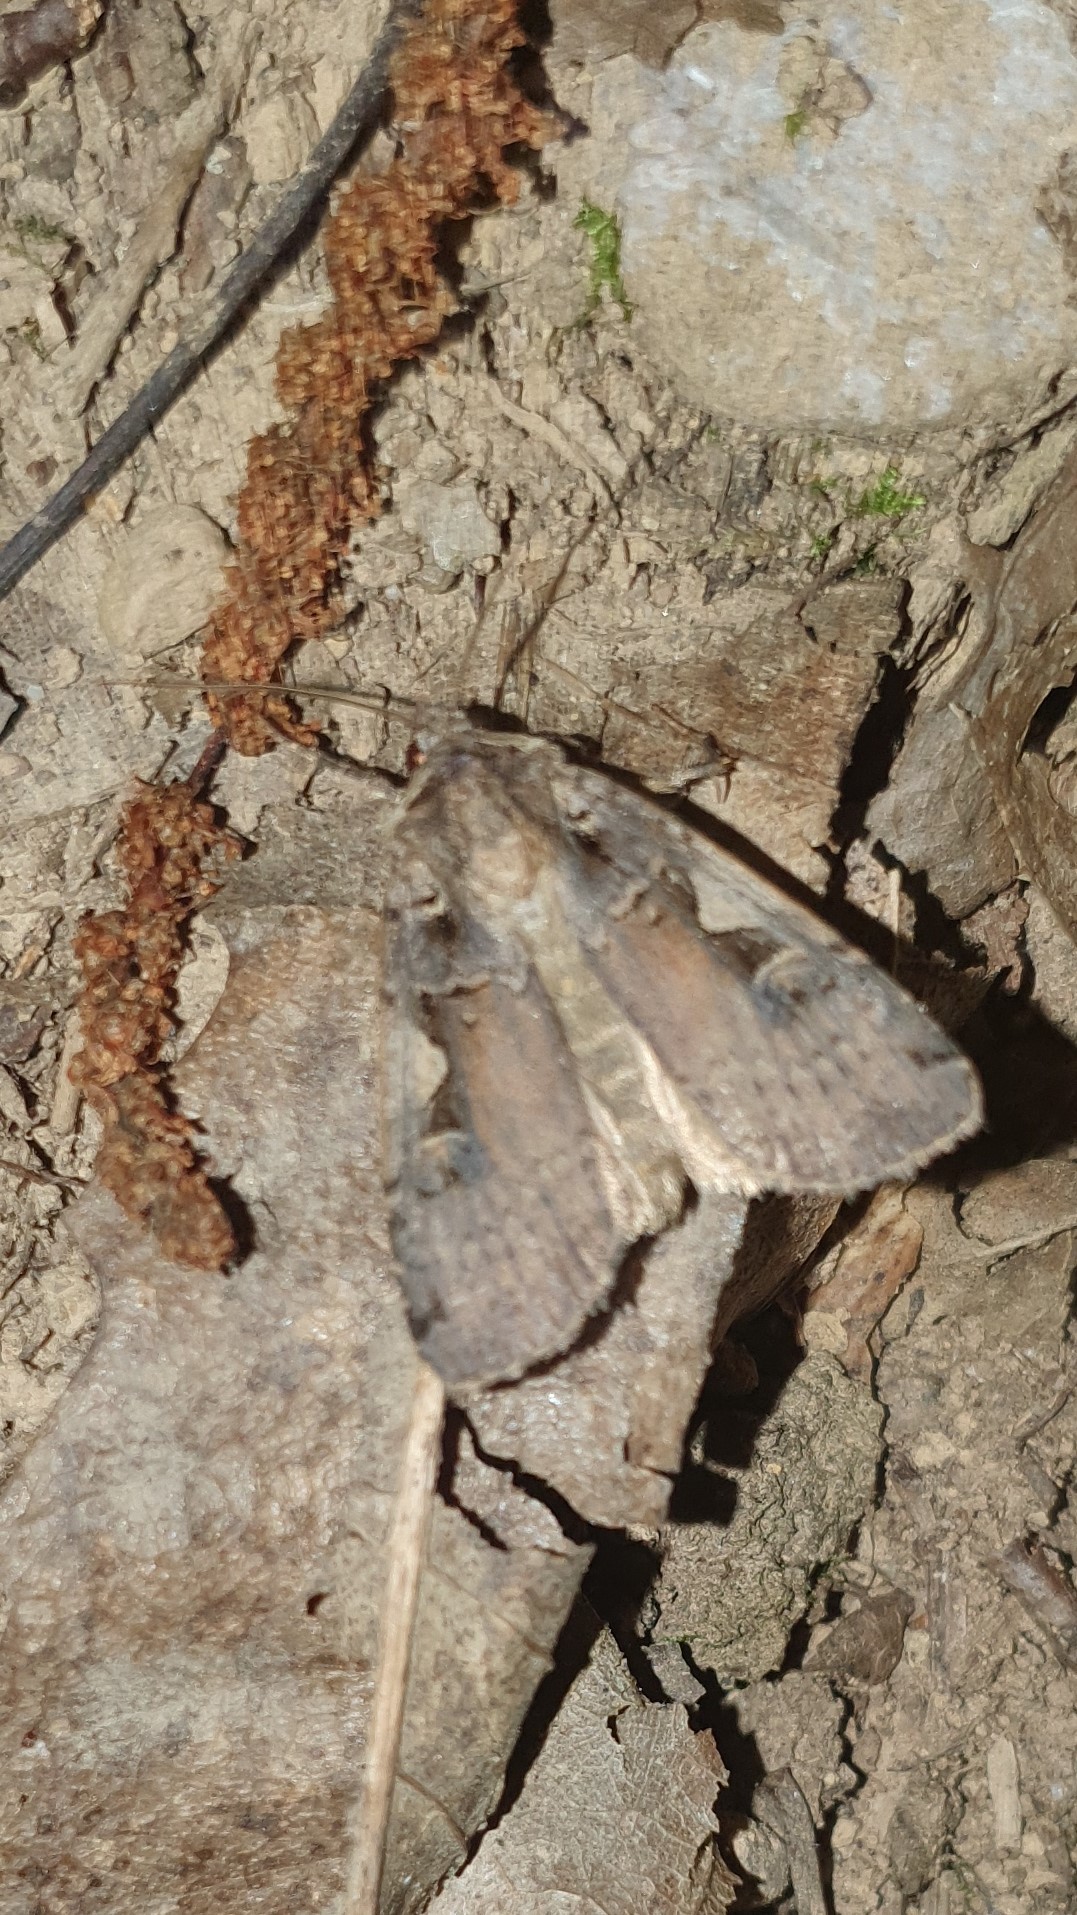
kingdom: Animalia
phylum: Arthropoda
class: Insecta
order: Lepidoptera
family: Noctuidae
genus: Xestia
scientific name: Xestia c-nigrum
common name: Setaceous hebrew character
